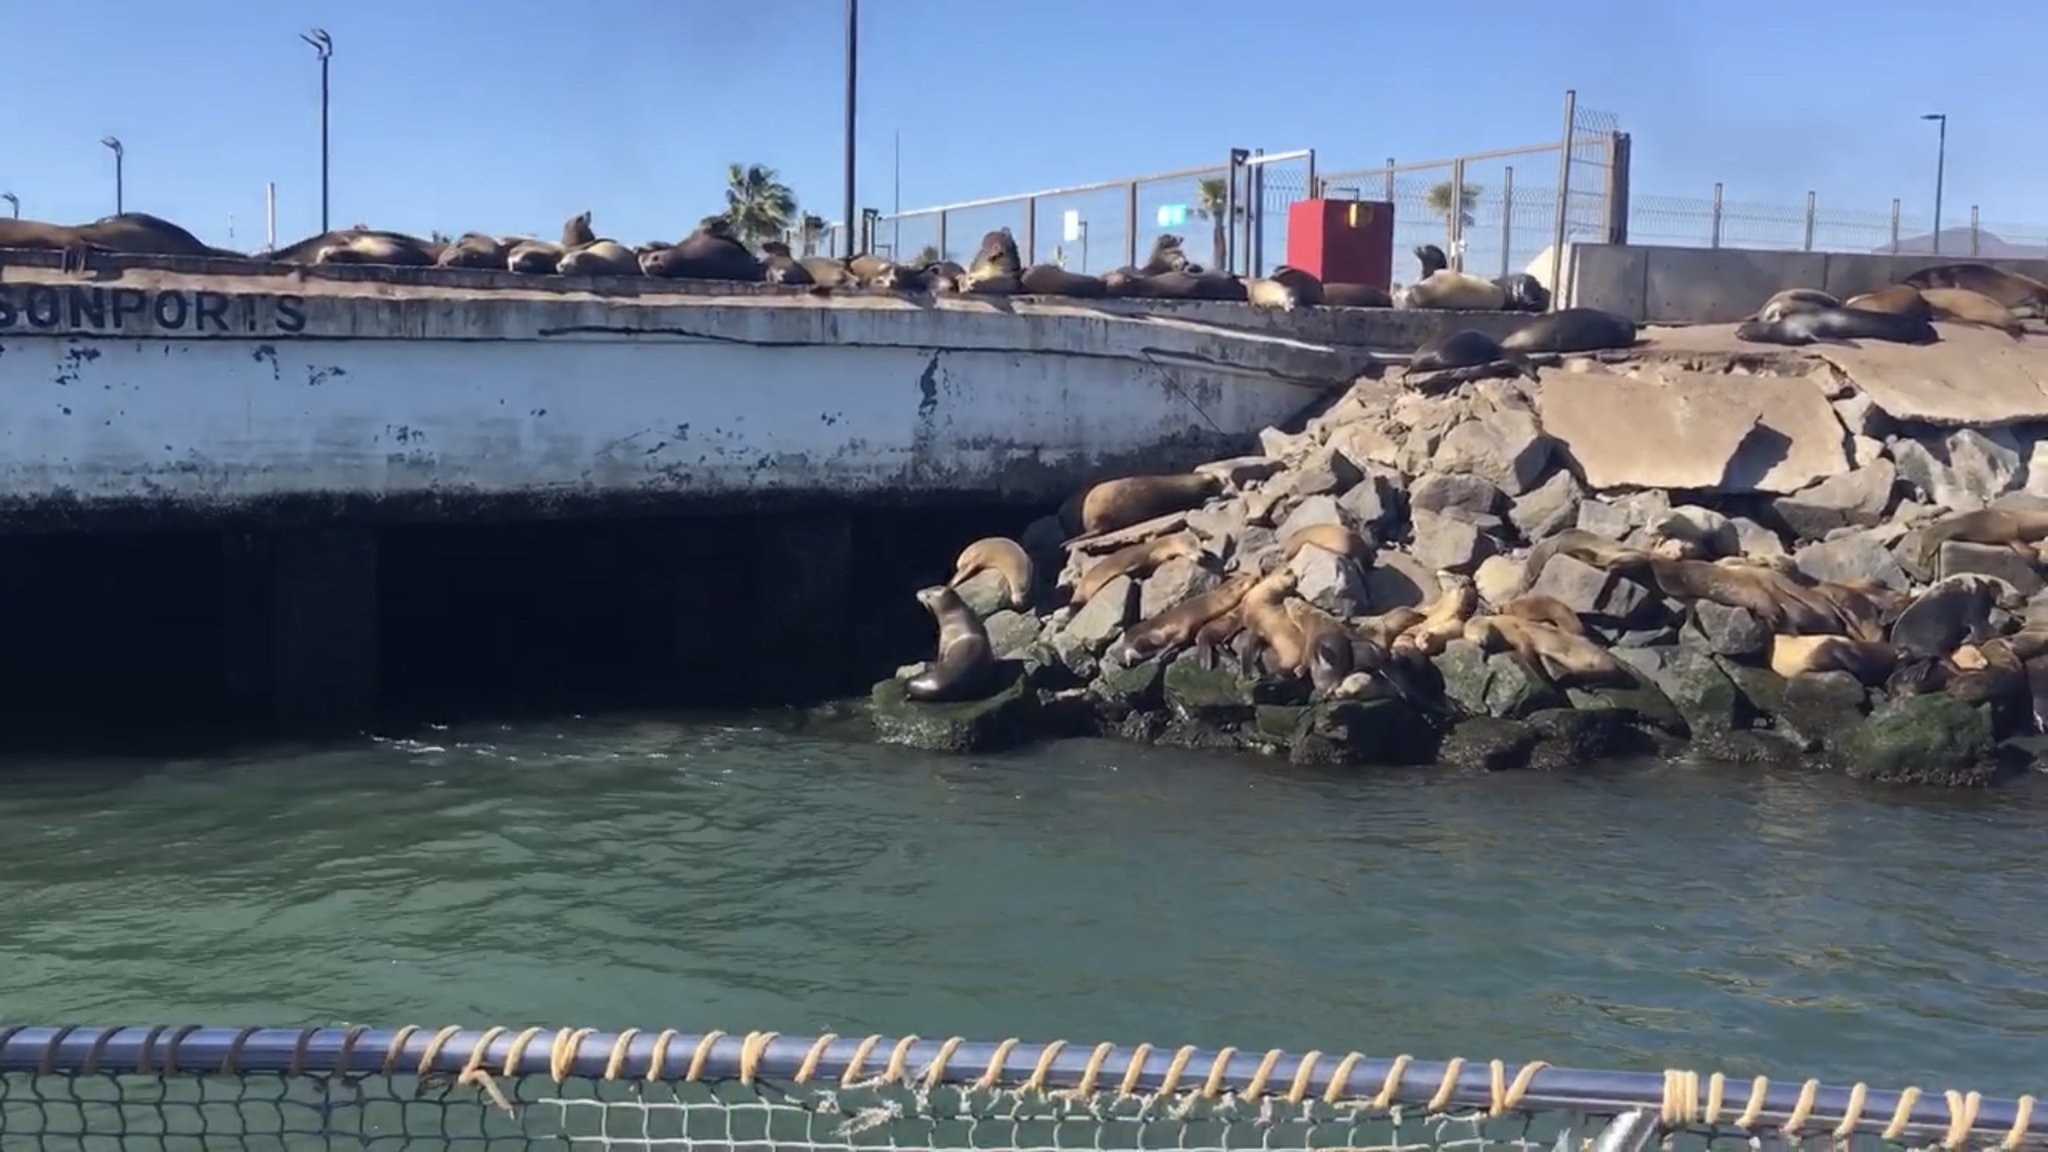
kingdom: Animalia
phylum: Chordata
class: Mammalia
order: Carnivora
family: Otariidae
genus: Zalophus
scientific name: Zalophus californianus
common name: California sea lion
